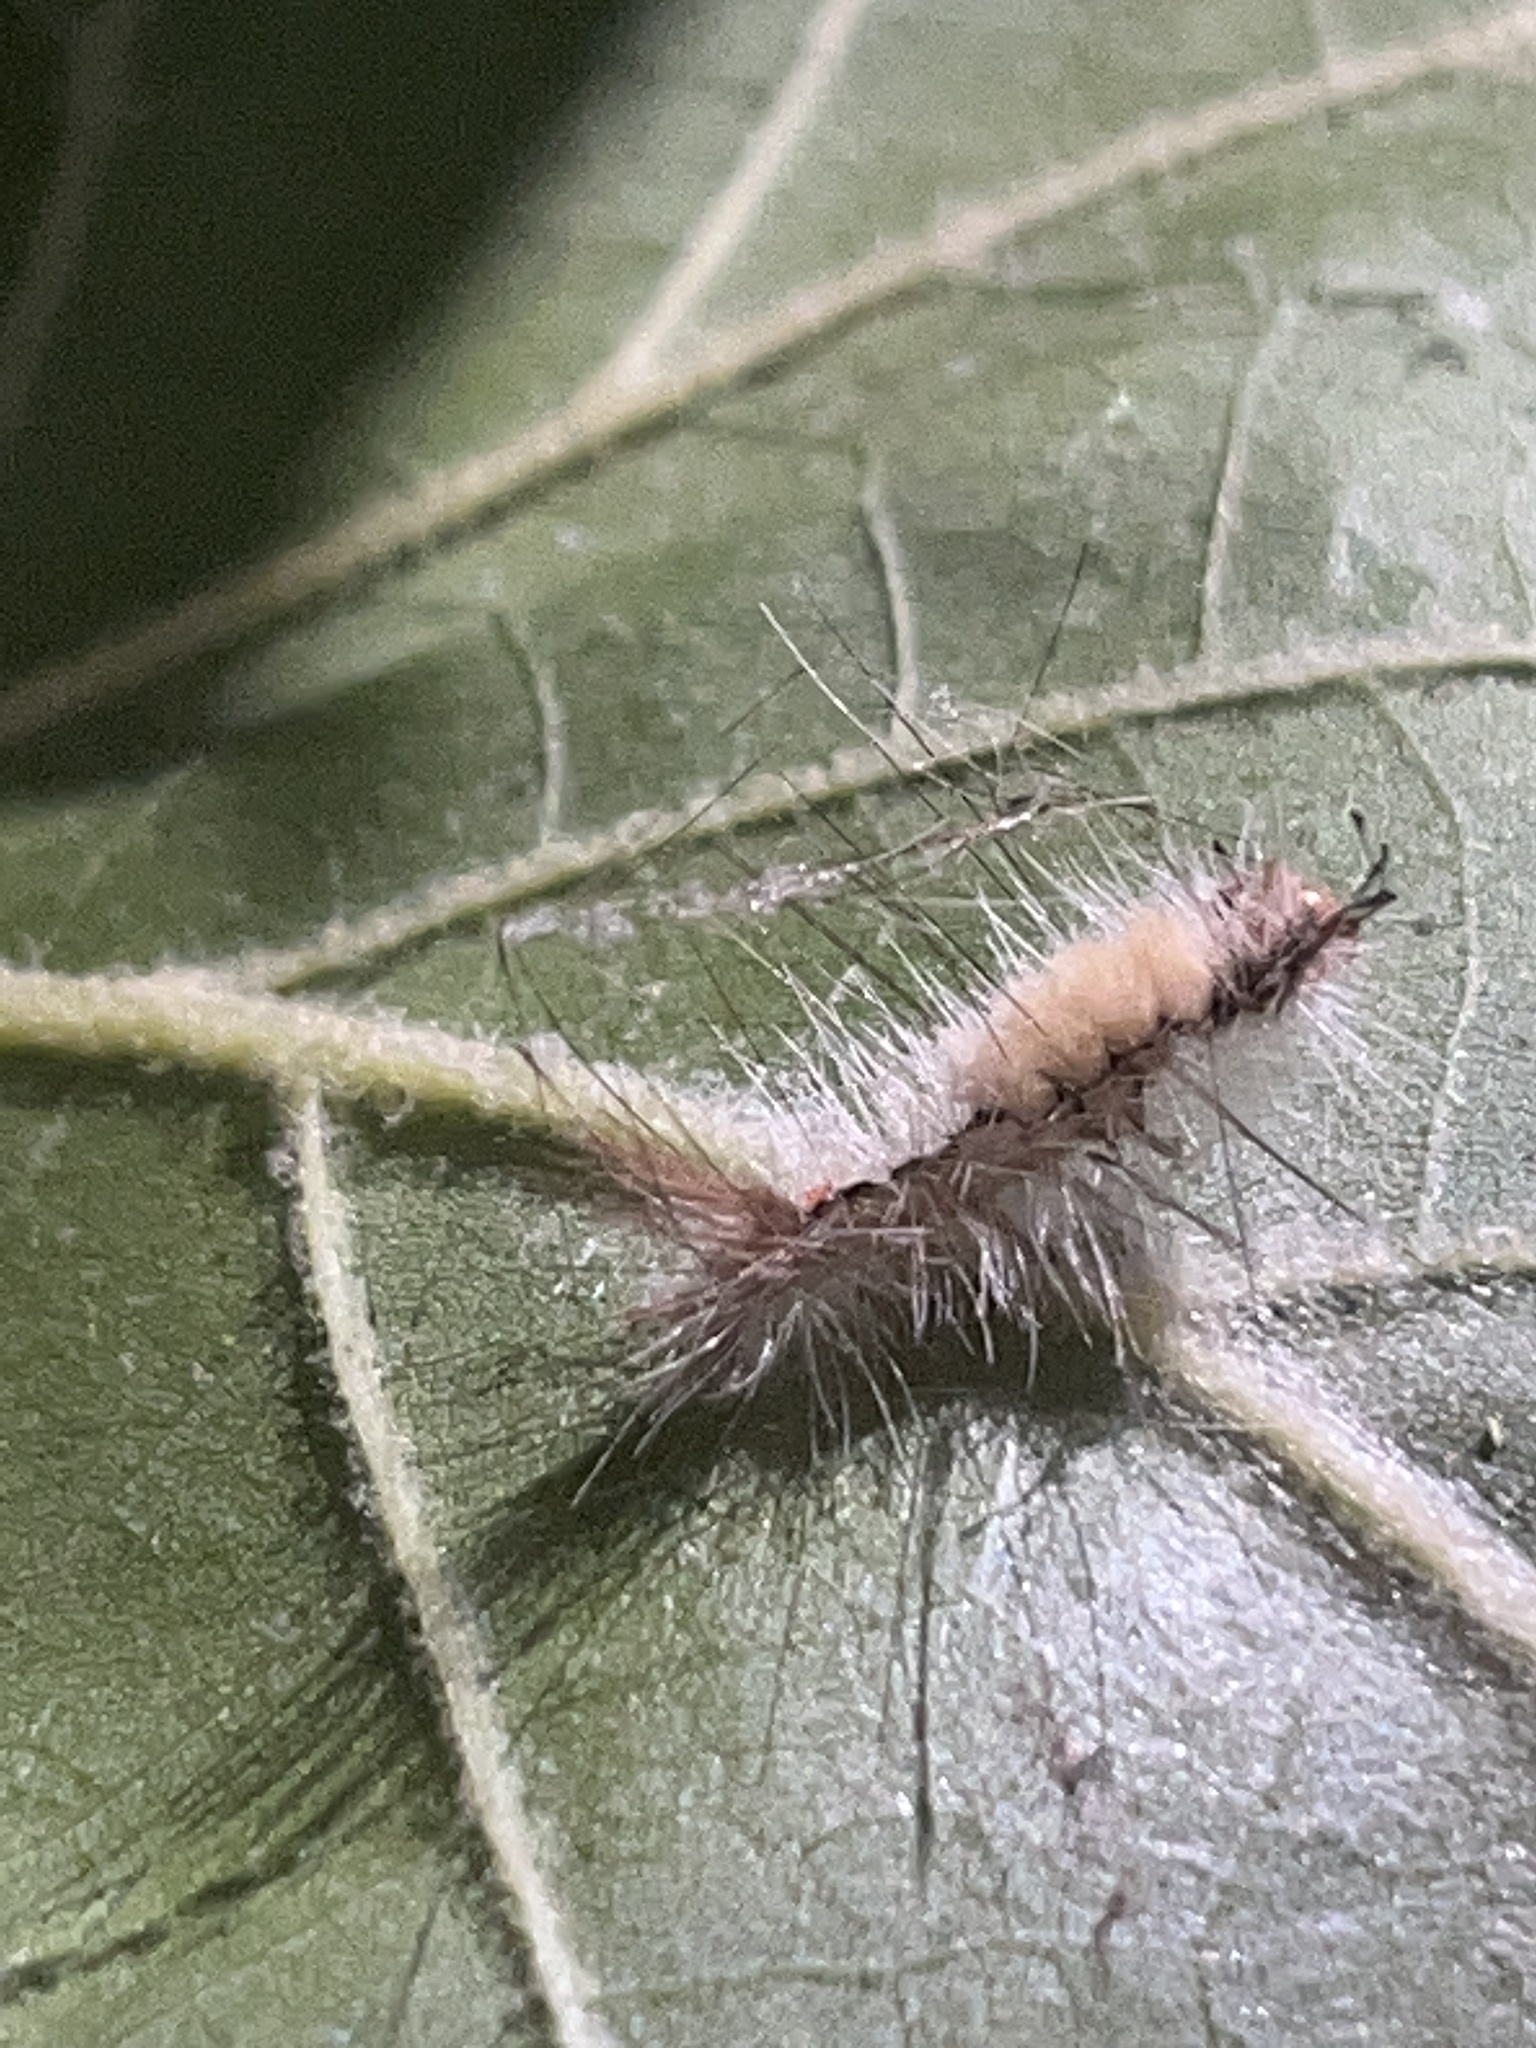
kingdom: Animalia
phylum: Arthropoda
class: Insecta
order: Lepidoptera
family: Erebidae
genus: Orgyia
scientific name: Orgyia leucostigma
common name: White-marked tussock moth
